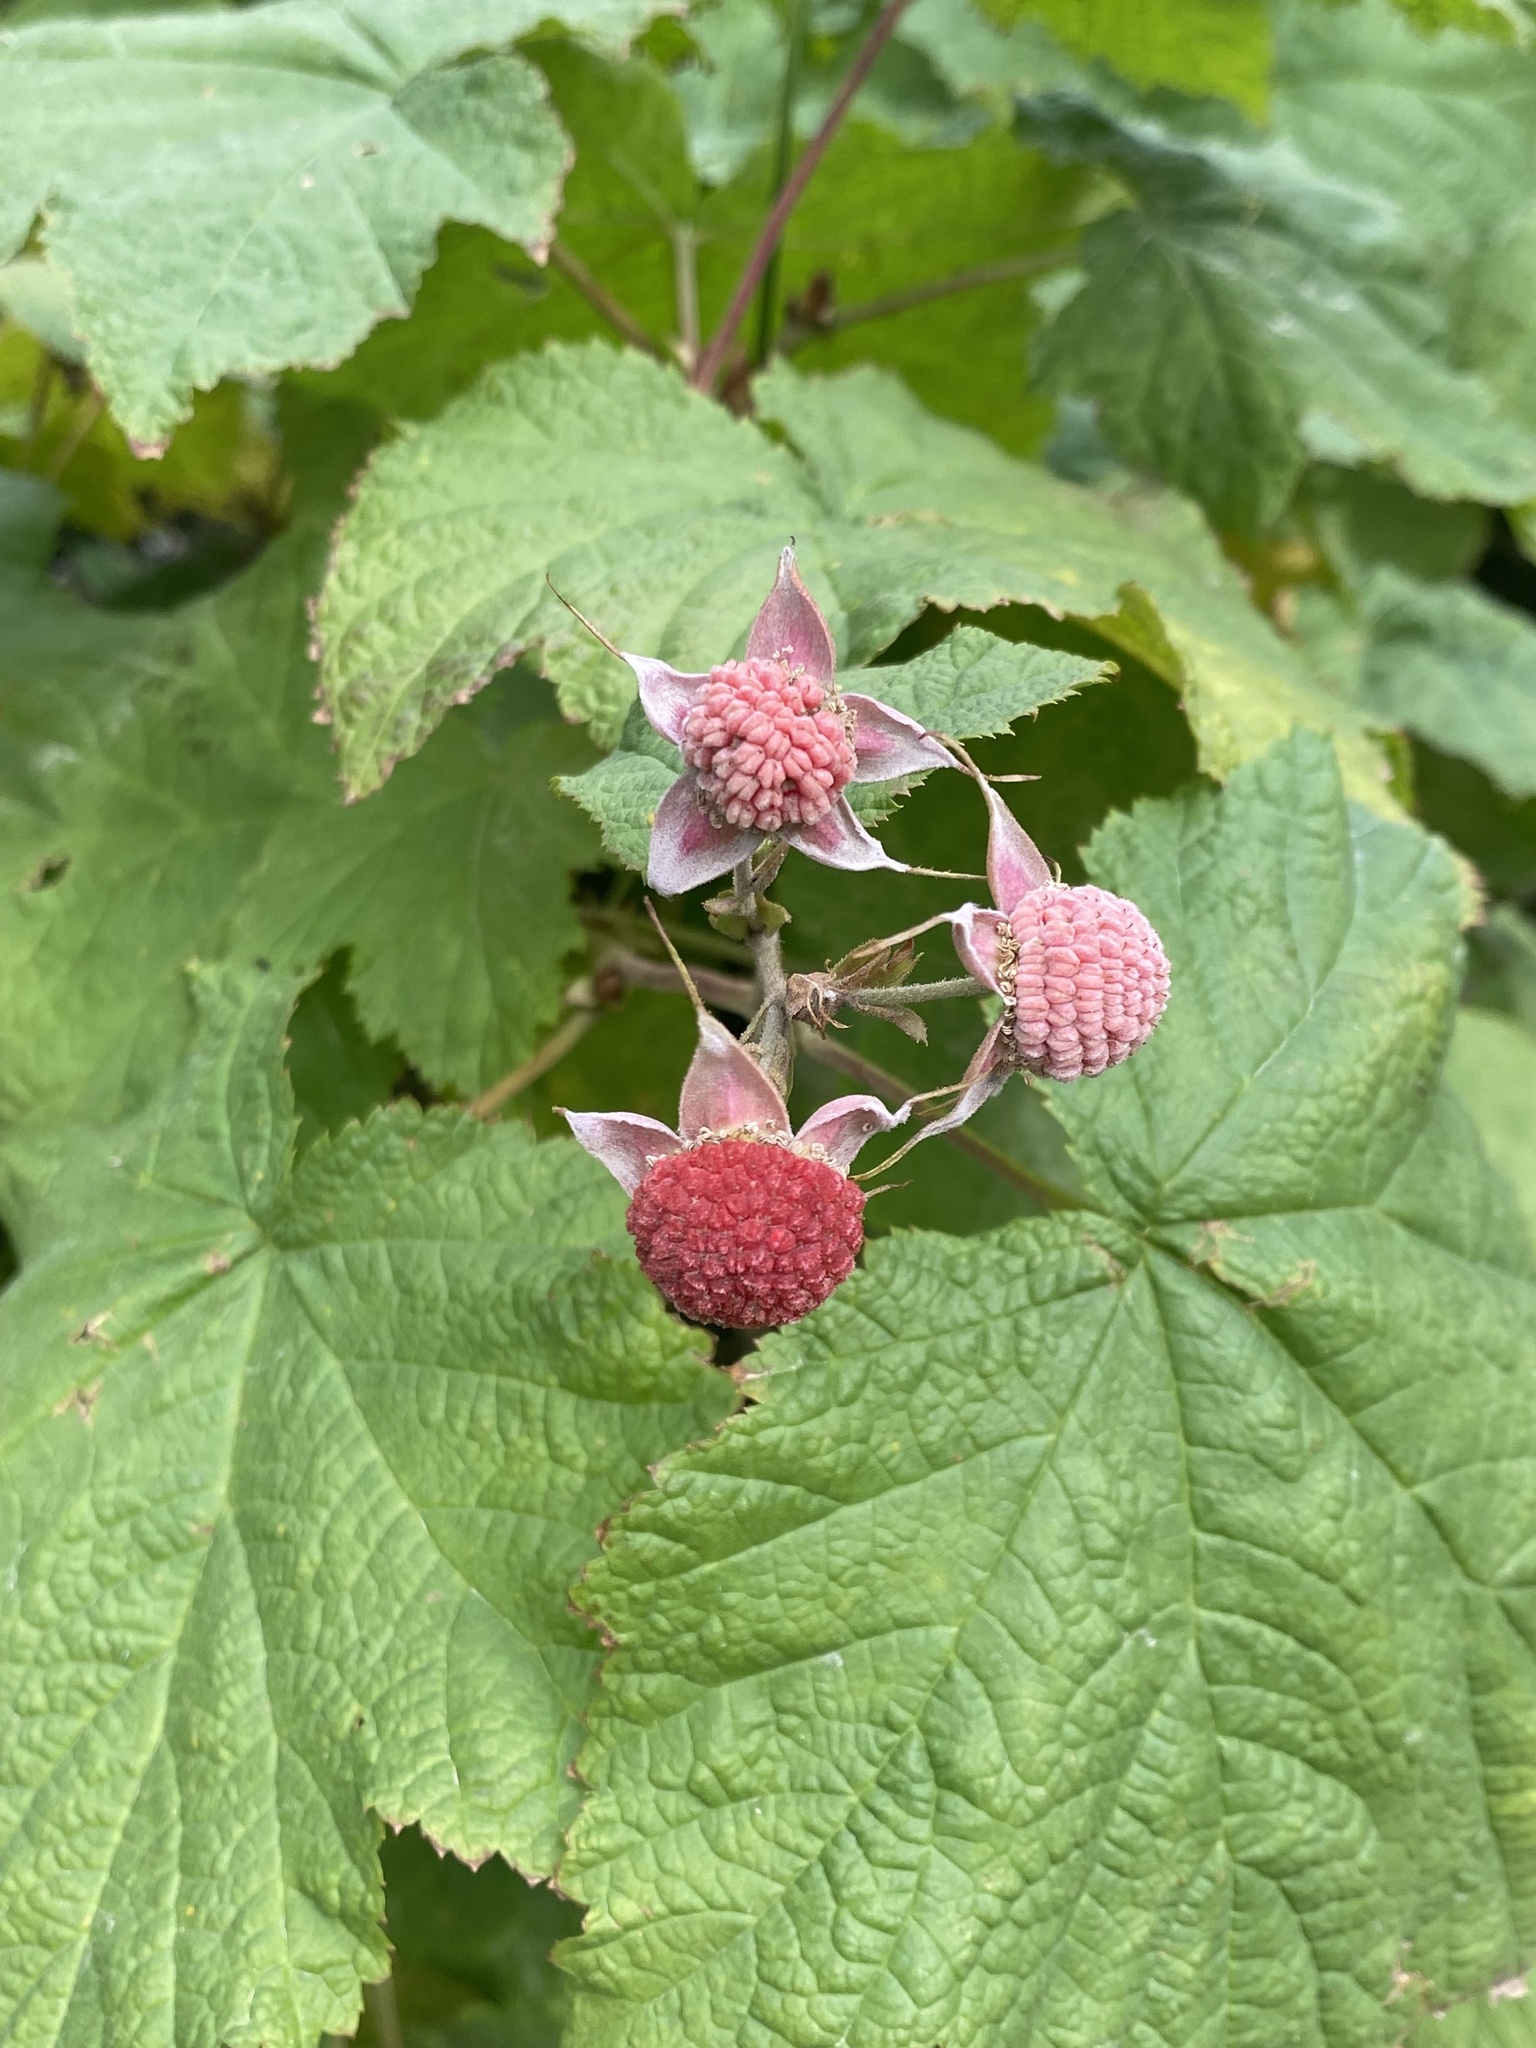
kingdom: Plantae
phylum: Tracheophyta
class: Magnoliopsida
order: Rosales
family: Rosaceae
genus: Rubus
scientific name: Rubus parviflorus
